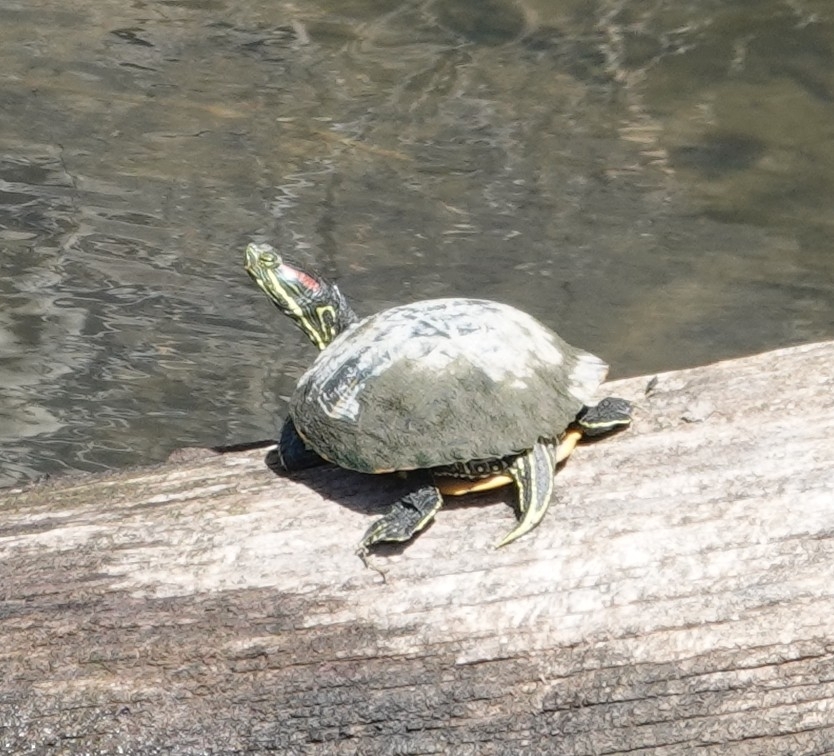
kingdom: Animalia
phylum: Chordata
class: Testudines
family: Emydidae
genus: Trachemys
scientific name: Trachemys scripta
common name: Slider
